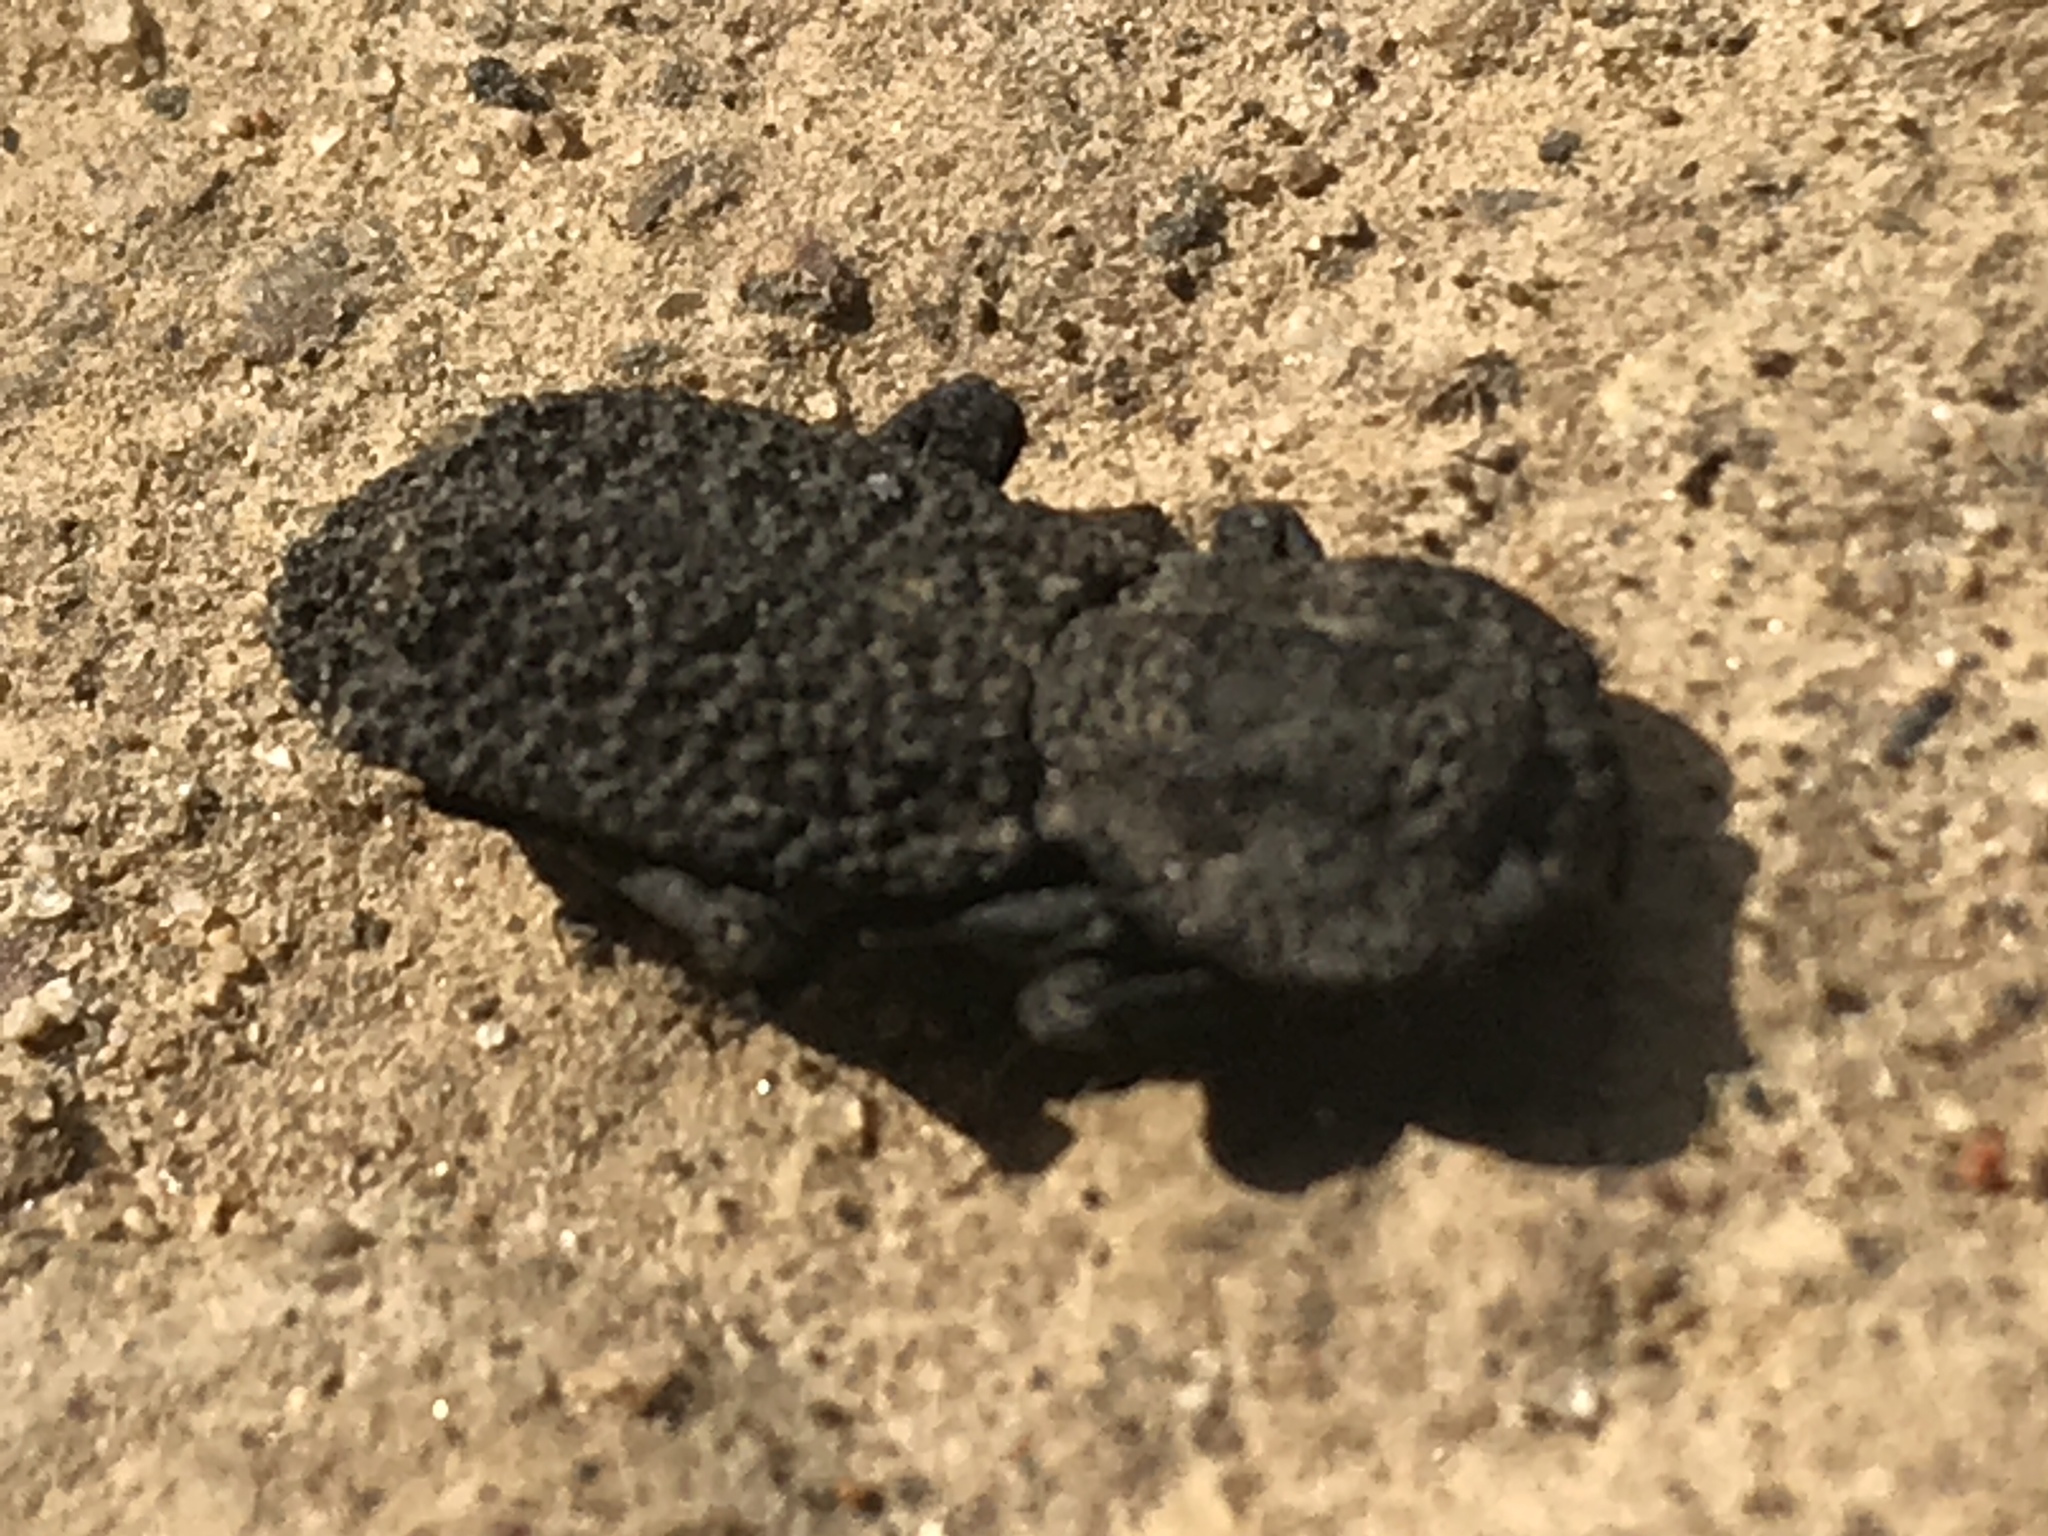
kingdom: Animalia
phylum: Arthropoda
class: Insecta
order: Coleoptera
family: Zopheridae
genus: Phloeodes
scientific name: Phloeodes diabolicus
